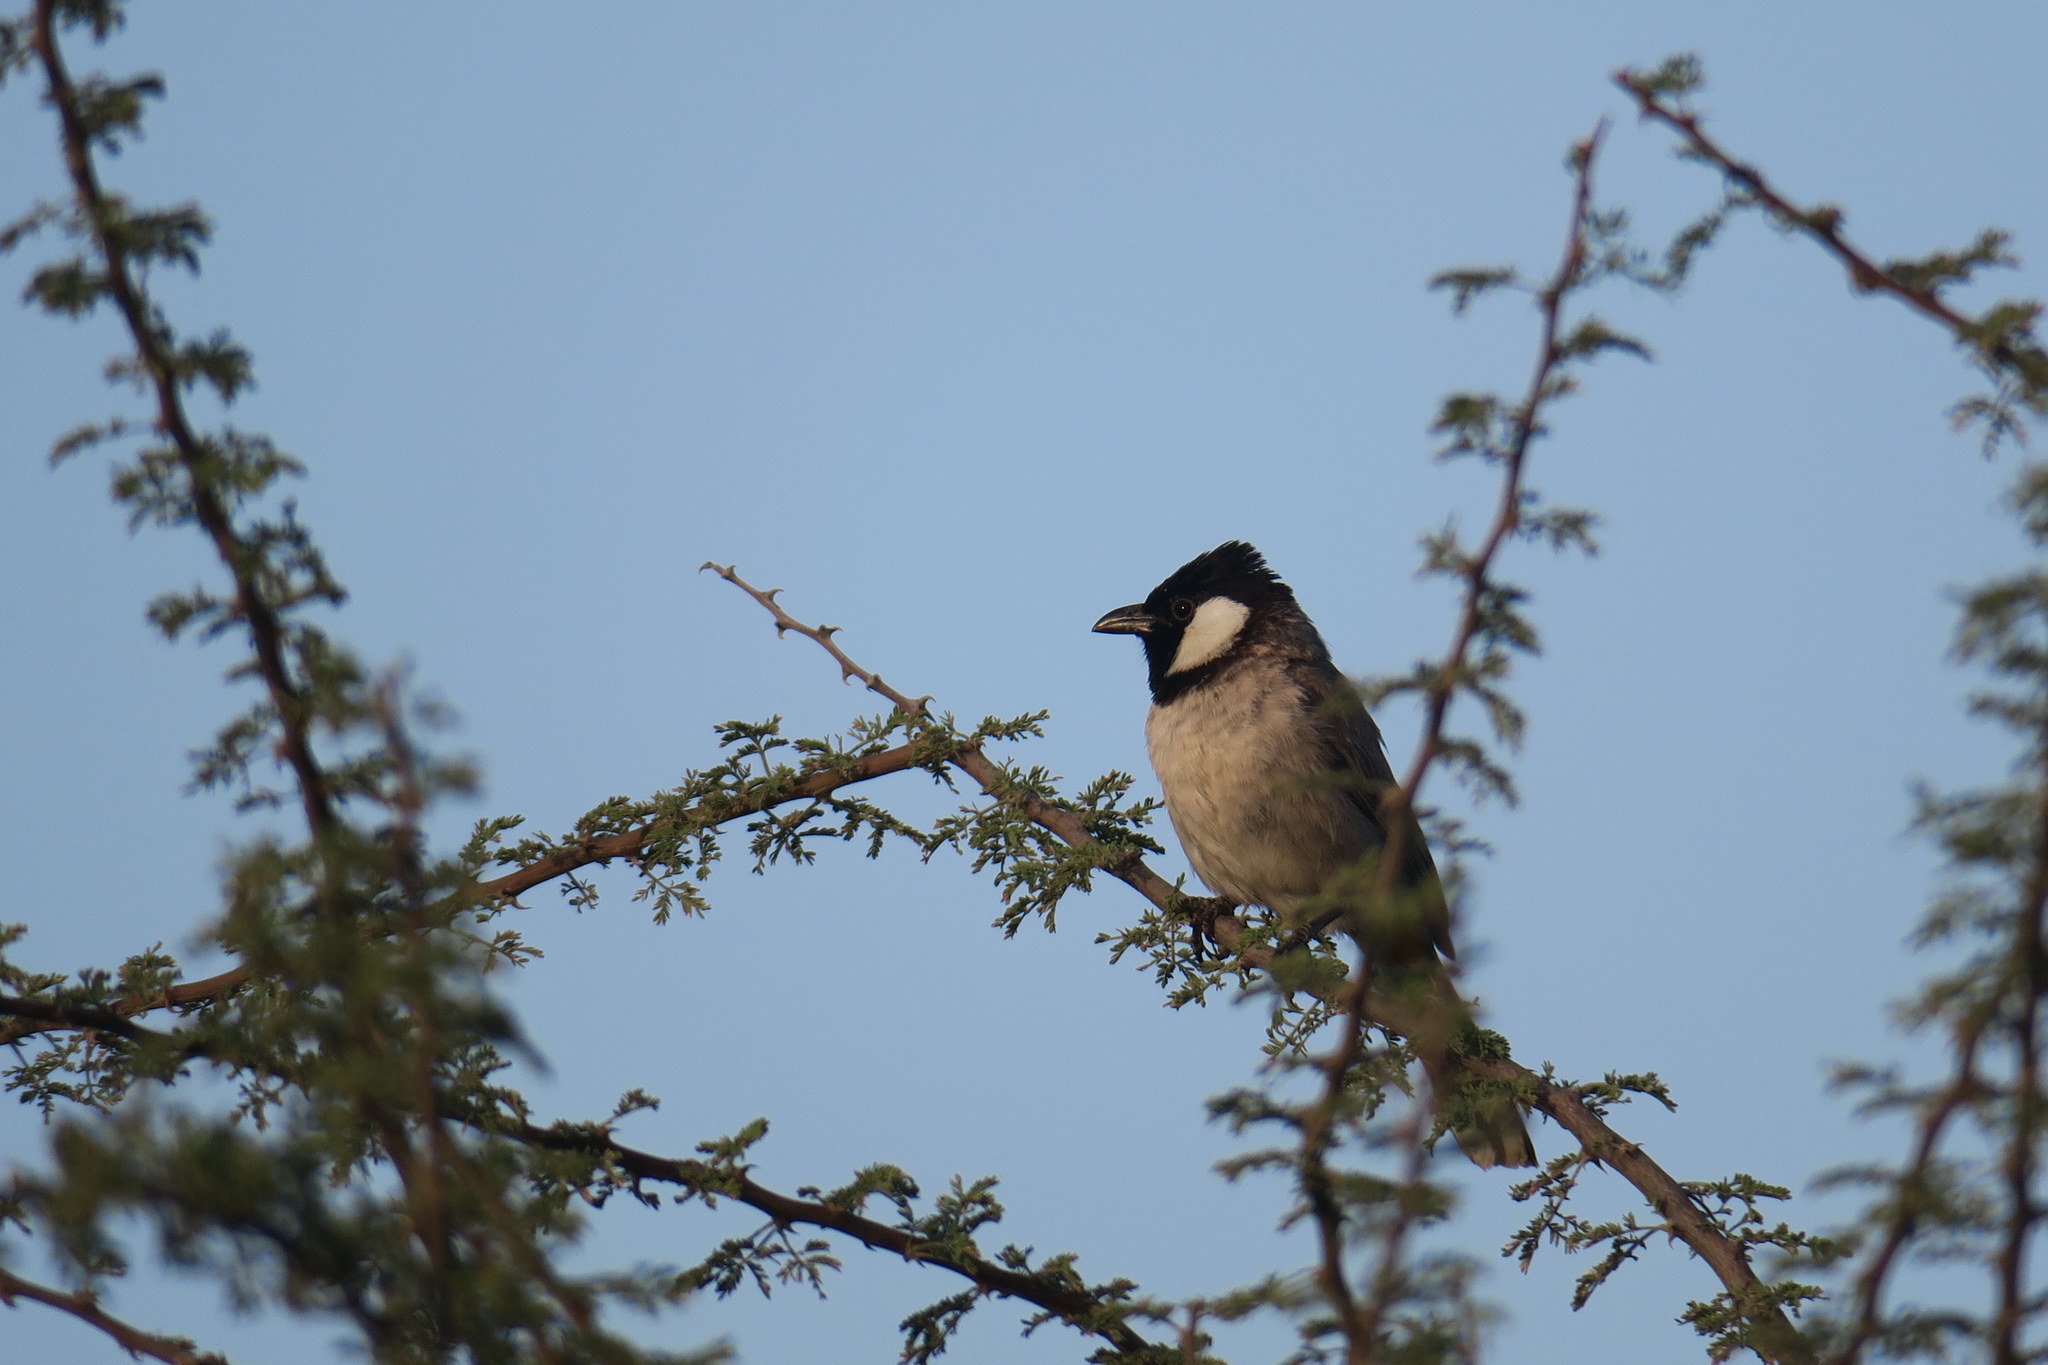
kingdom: Animalia
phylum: Chordata
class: Aves
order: Passeriformes
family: Pycnonotidae
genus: Pycnonotus
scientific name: Pycnonotus leucotis
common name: White-eared bulbul
